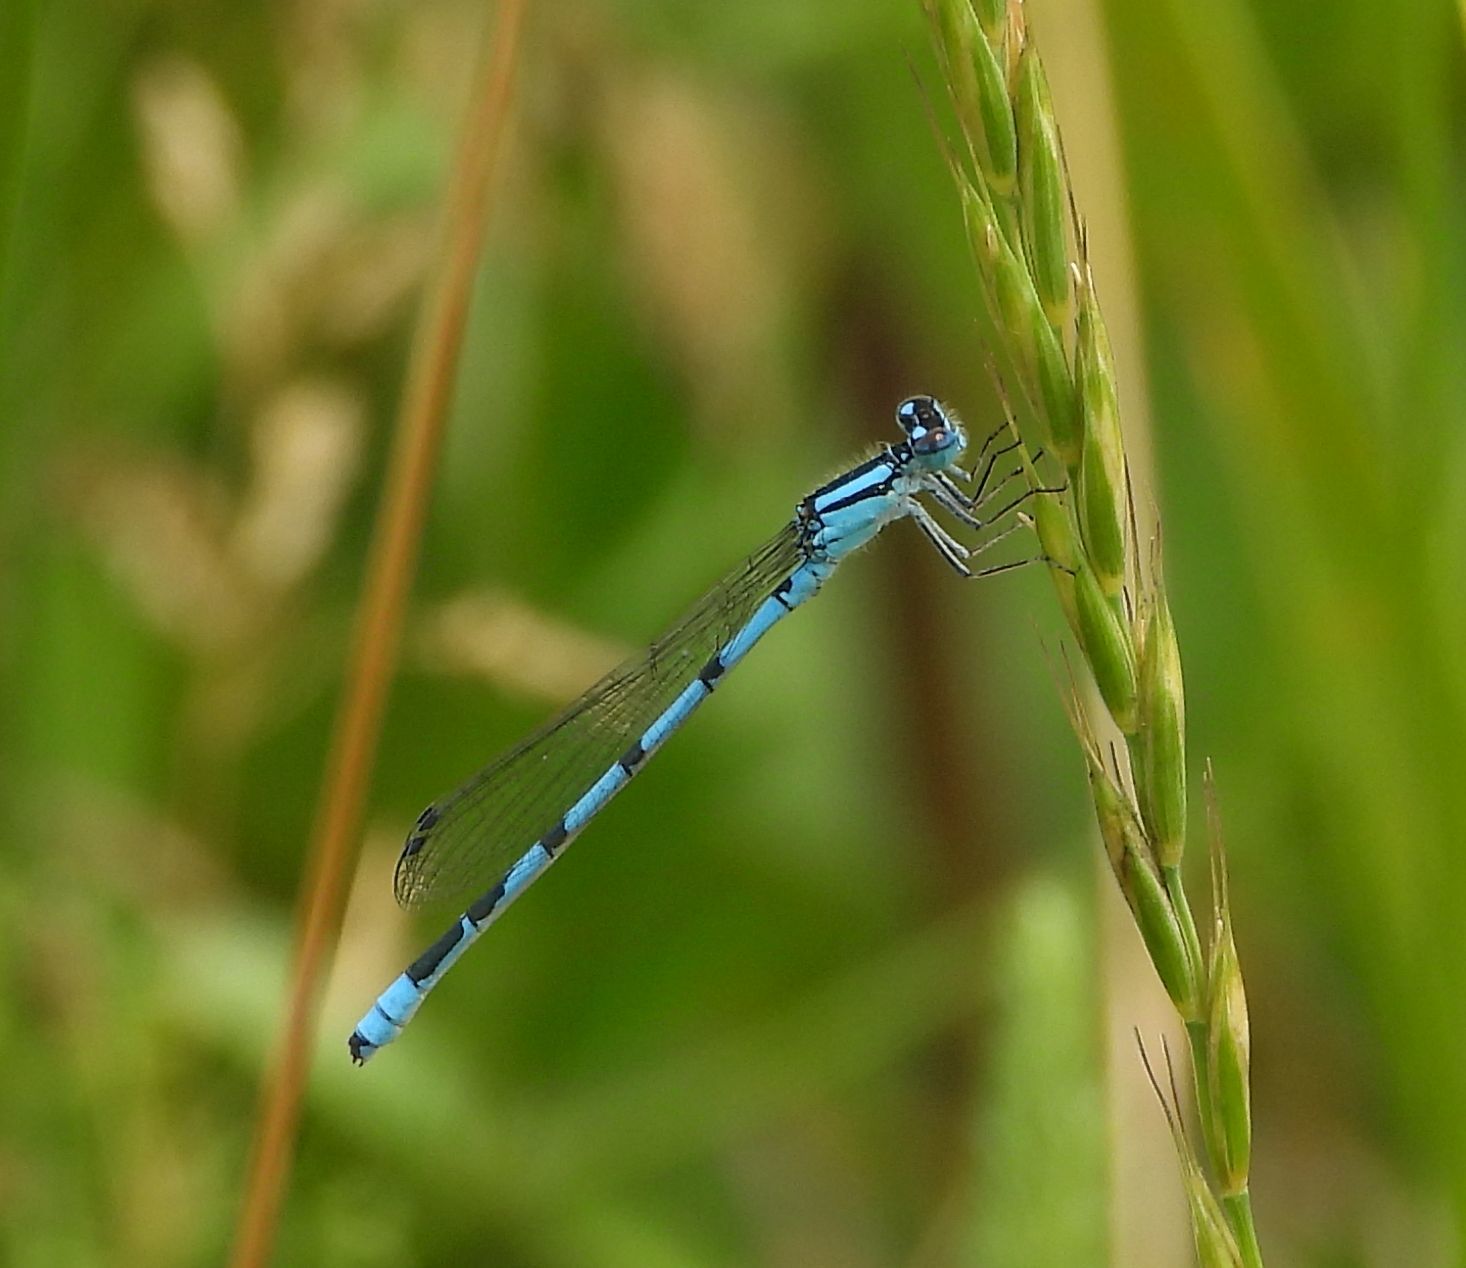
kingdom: Animalia
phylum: Arthropoda
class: Insecta
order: Odonata
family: Coenagrionidae
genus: Enallagma
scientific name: Enallagma hageni
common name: Hagen's bluet
